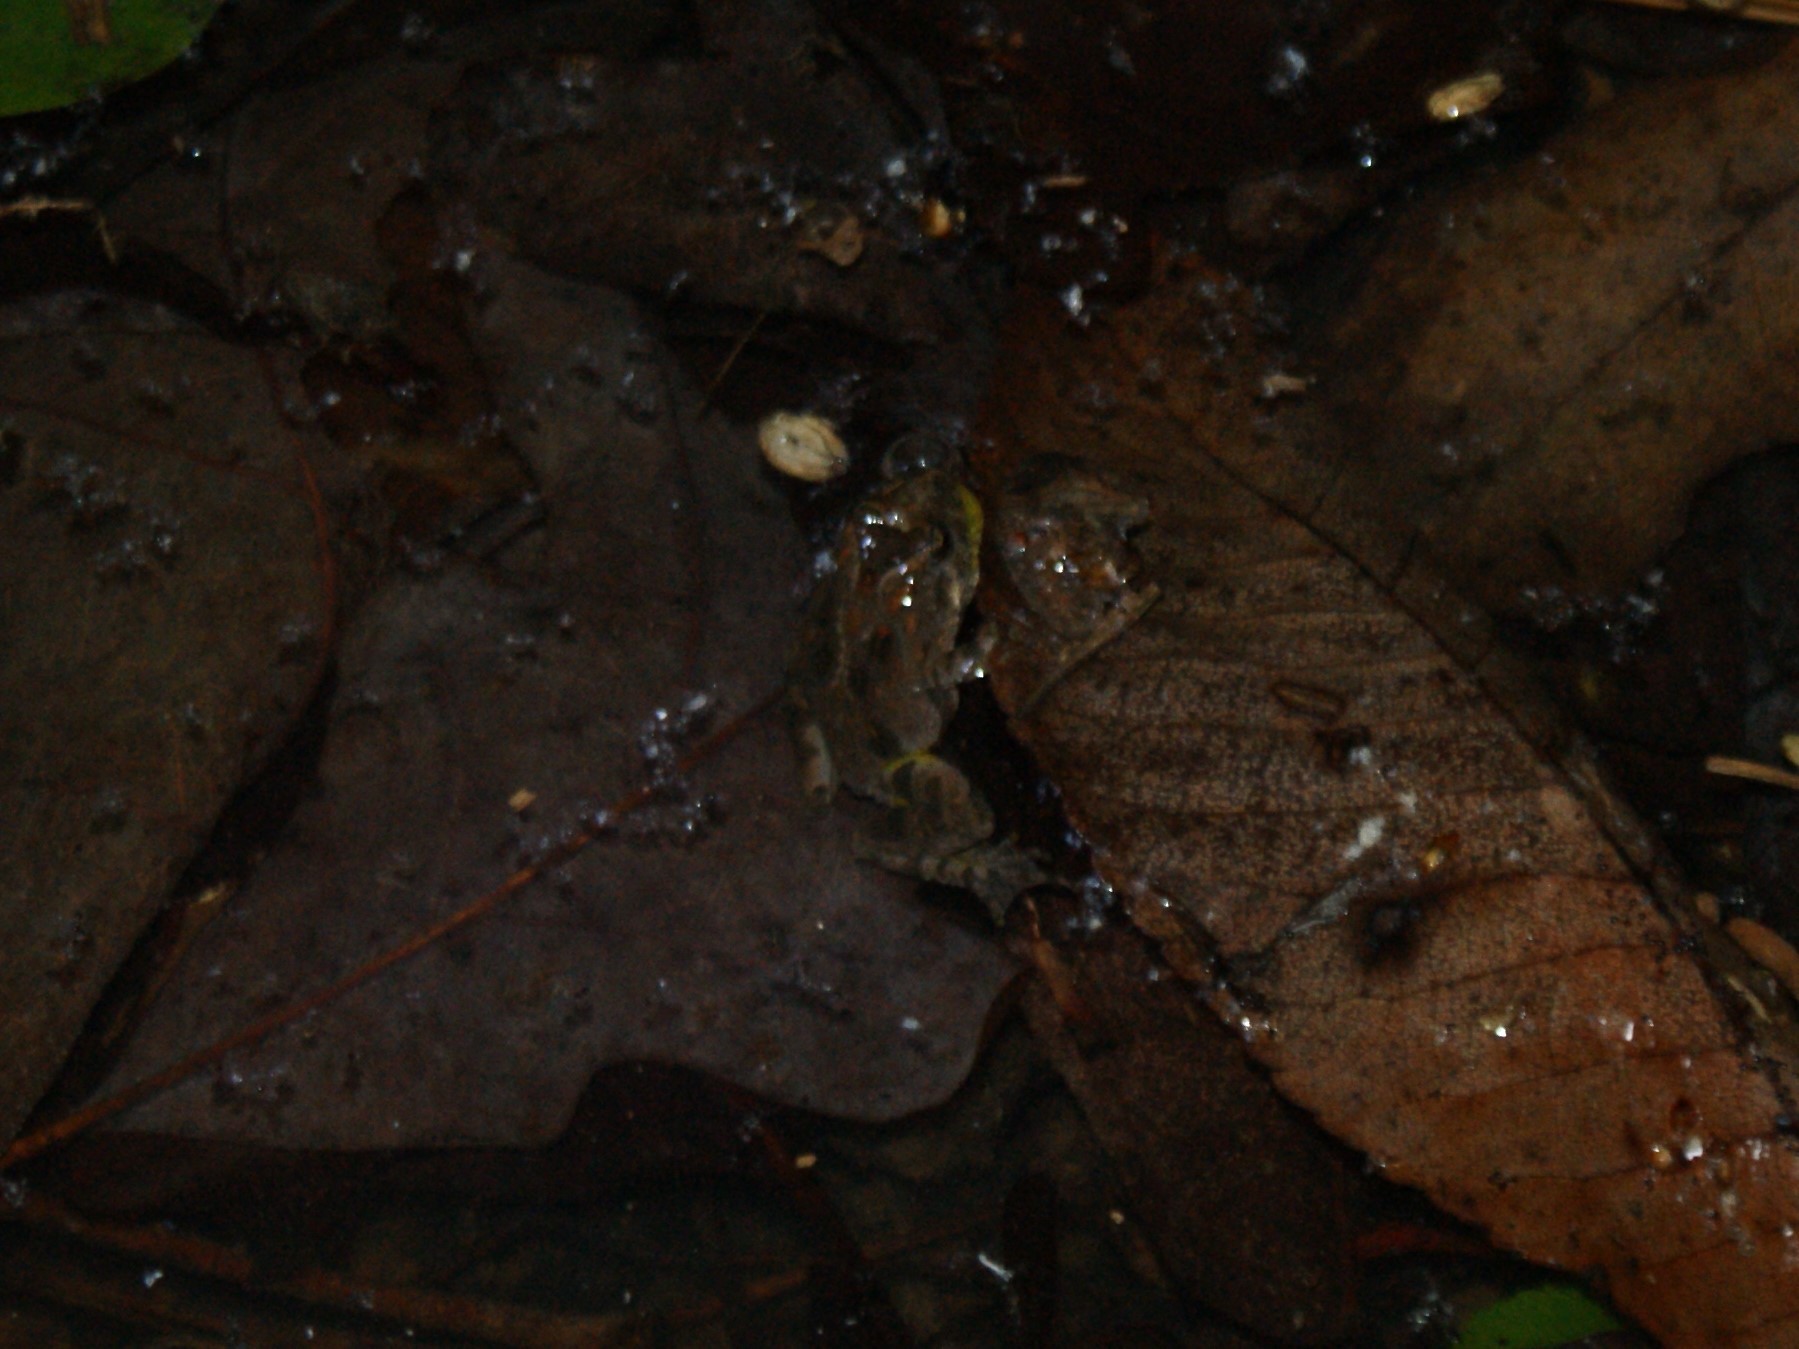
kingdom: Animalia
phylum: Chordata
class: Amphibia
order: Anura
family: Hylidae
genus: Acris
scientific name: Acris crepitans
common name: Northern cricket frog
